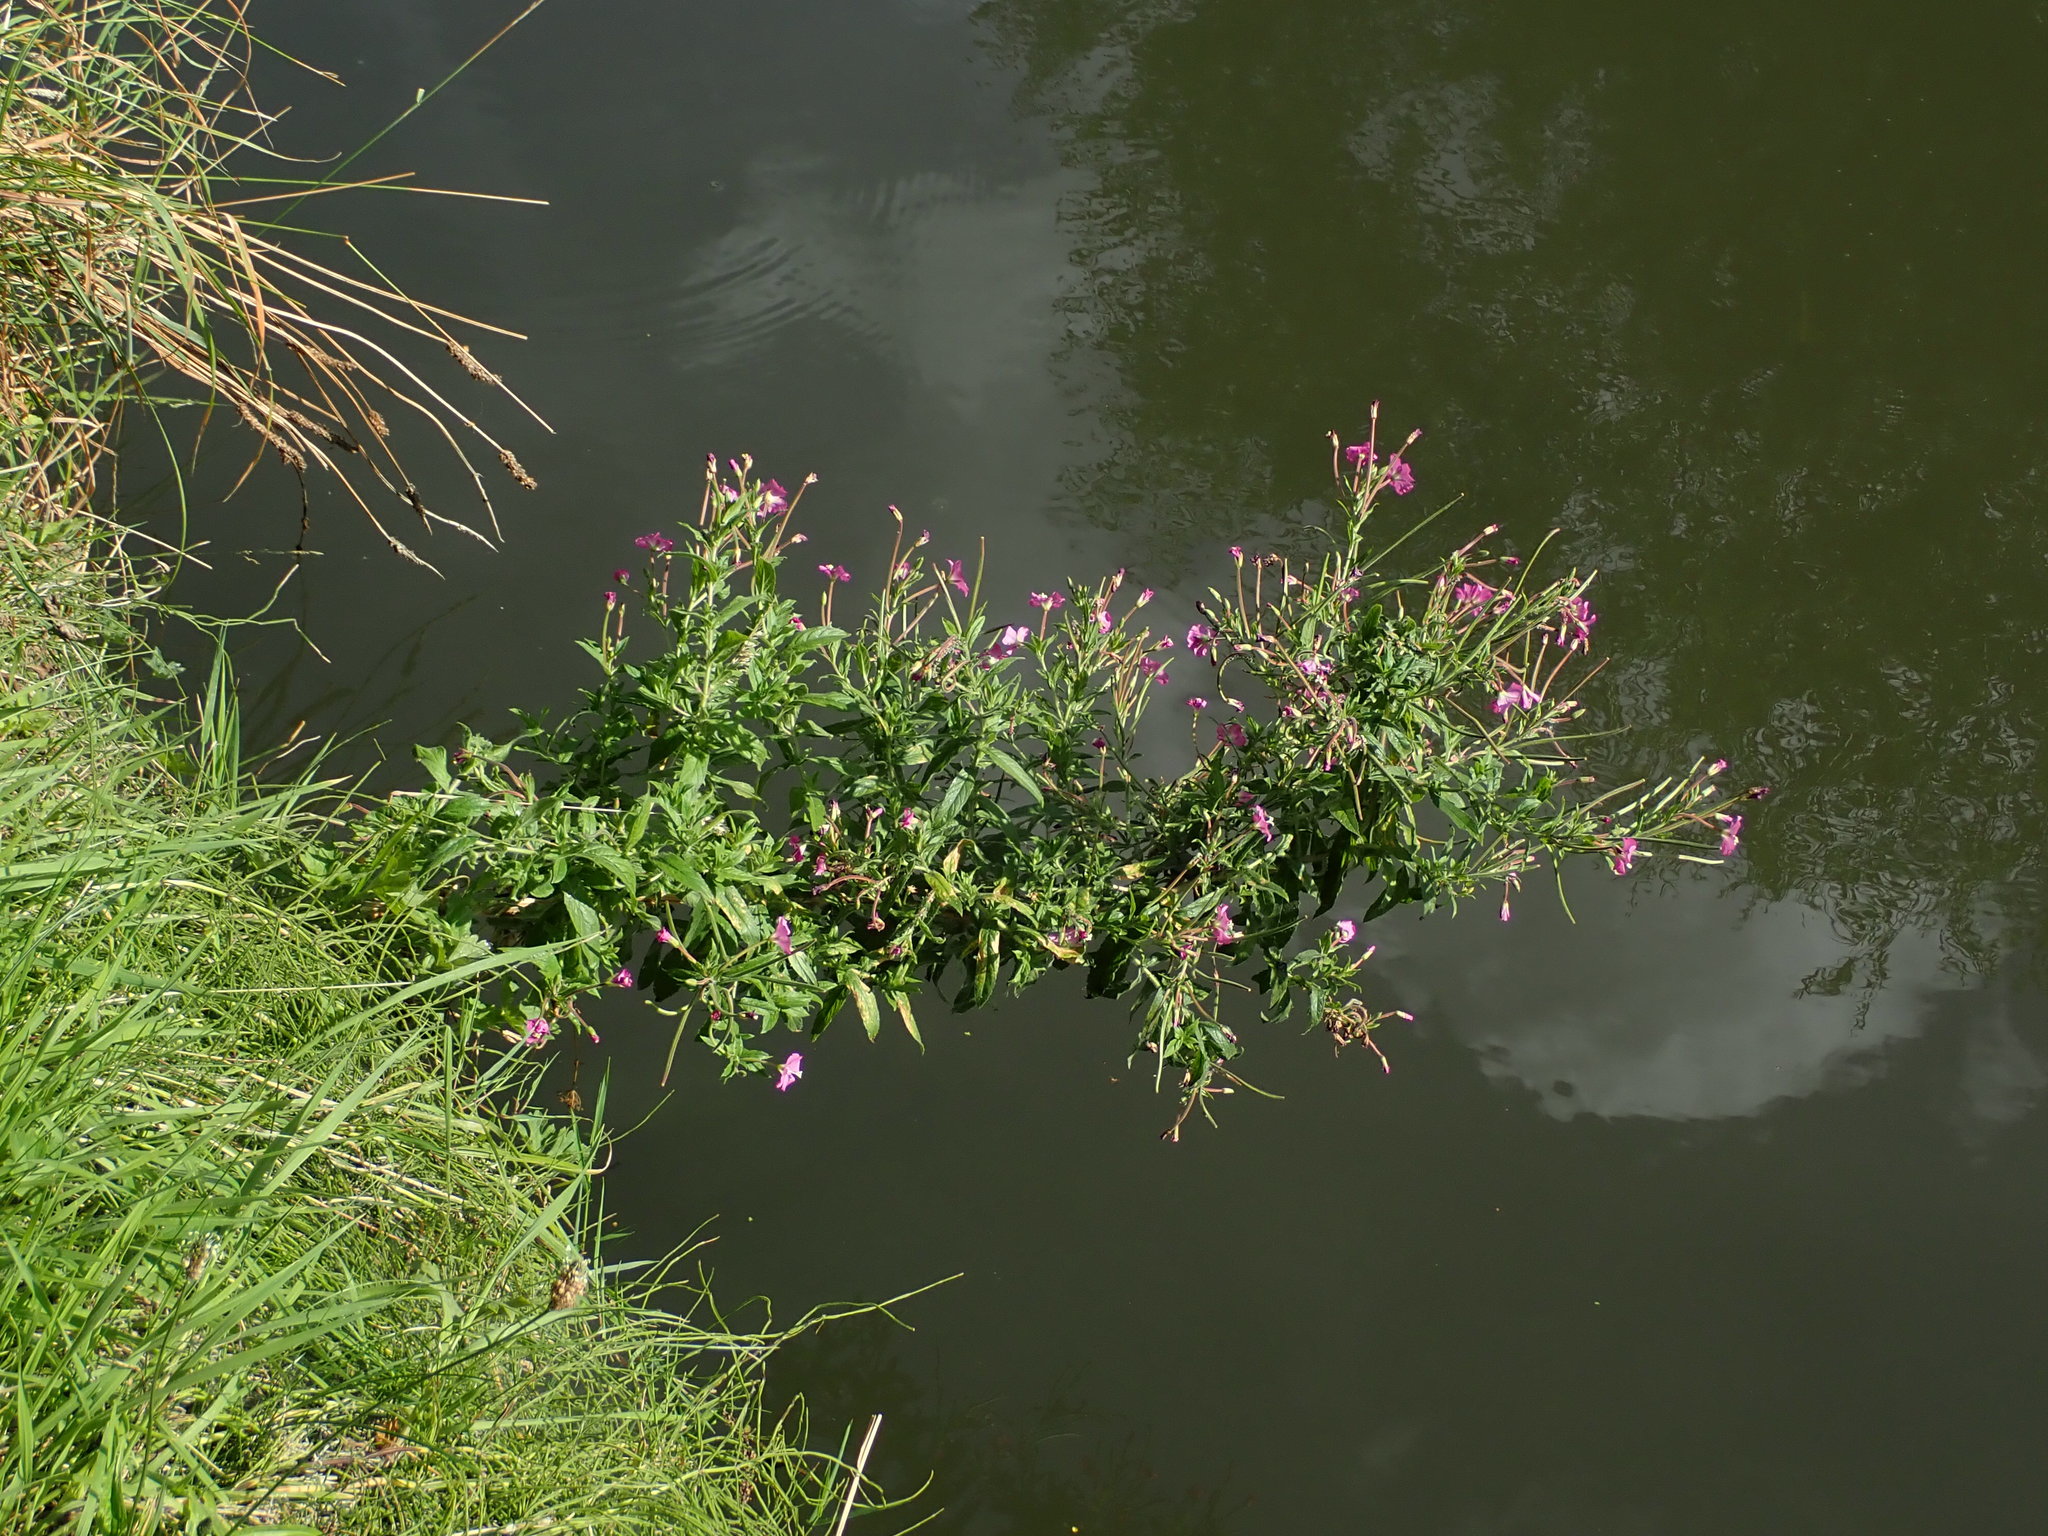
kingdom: Plantae
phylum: Tracheophyta
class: Magnoliopsida
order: Myrtales
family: Onagraceae
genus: Epilobium
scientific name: Epilobium hirsutum
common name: Great willowherb
